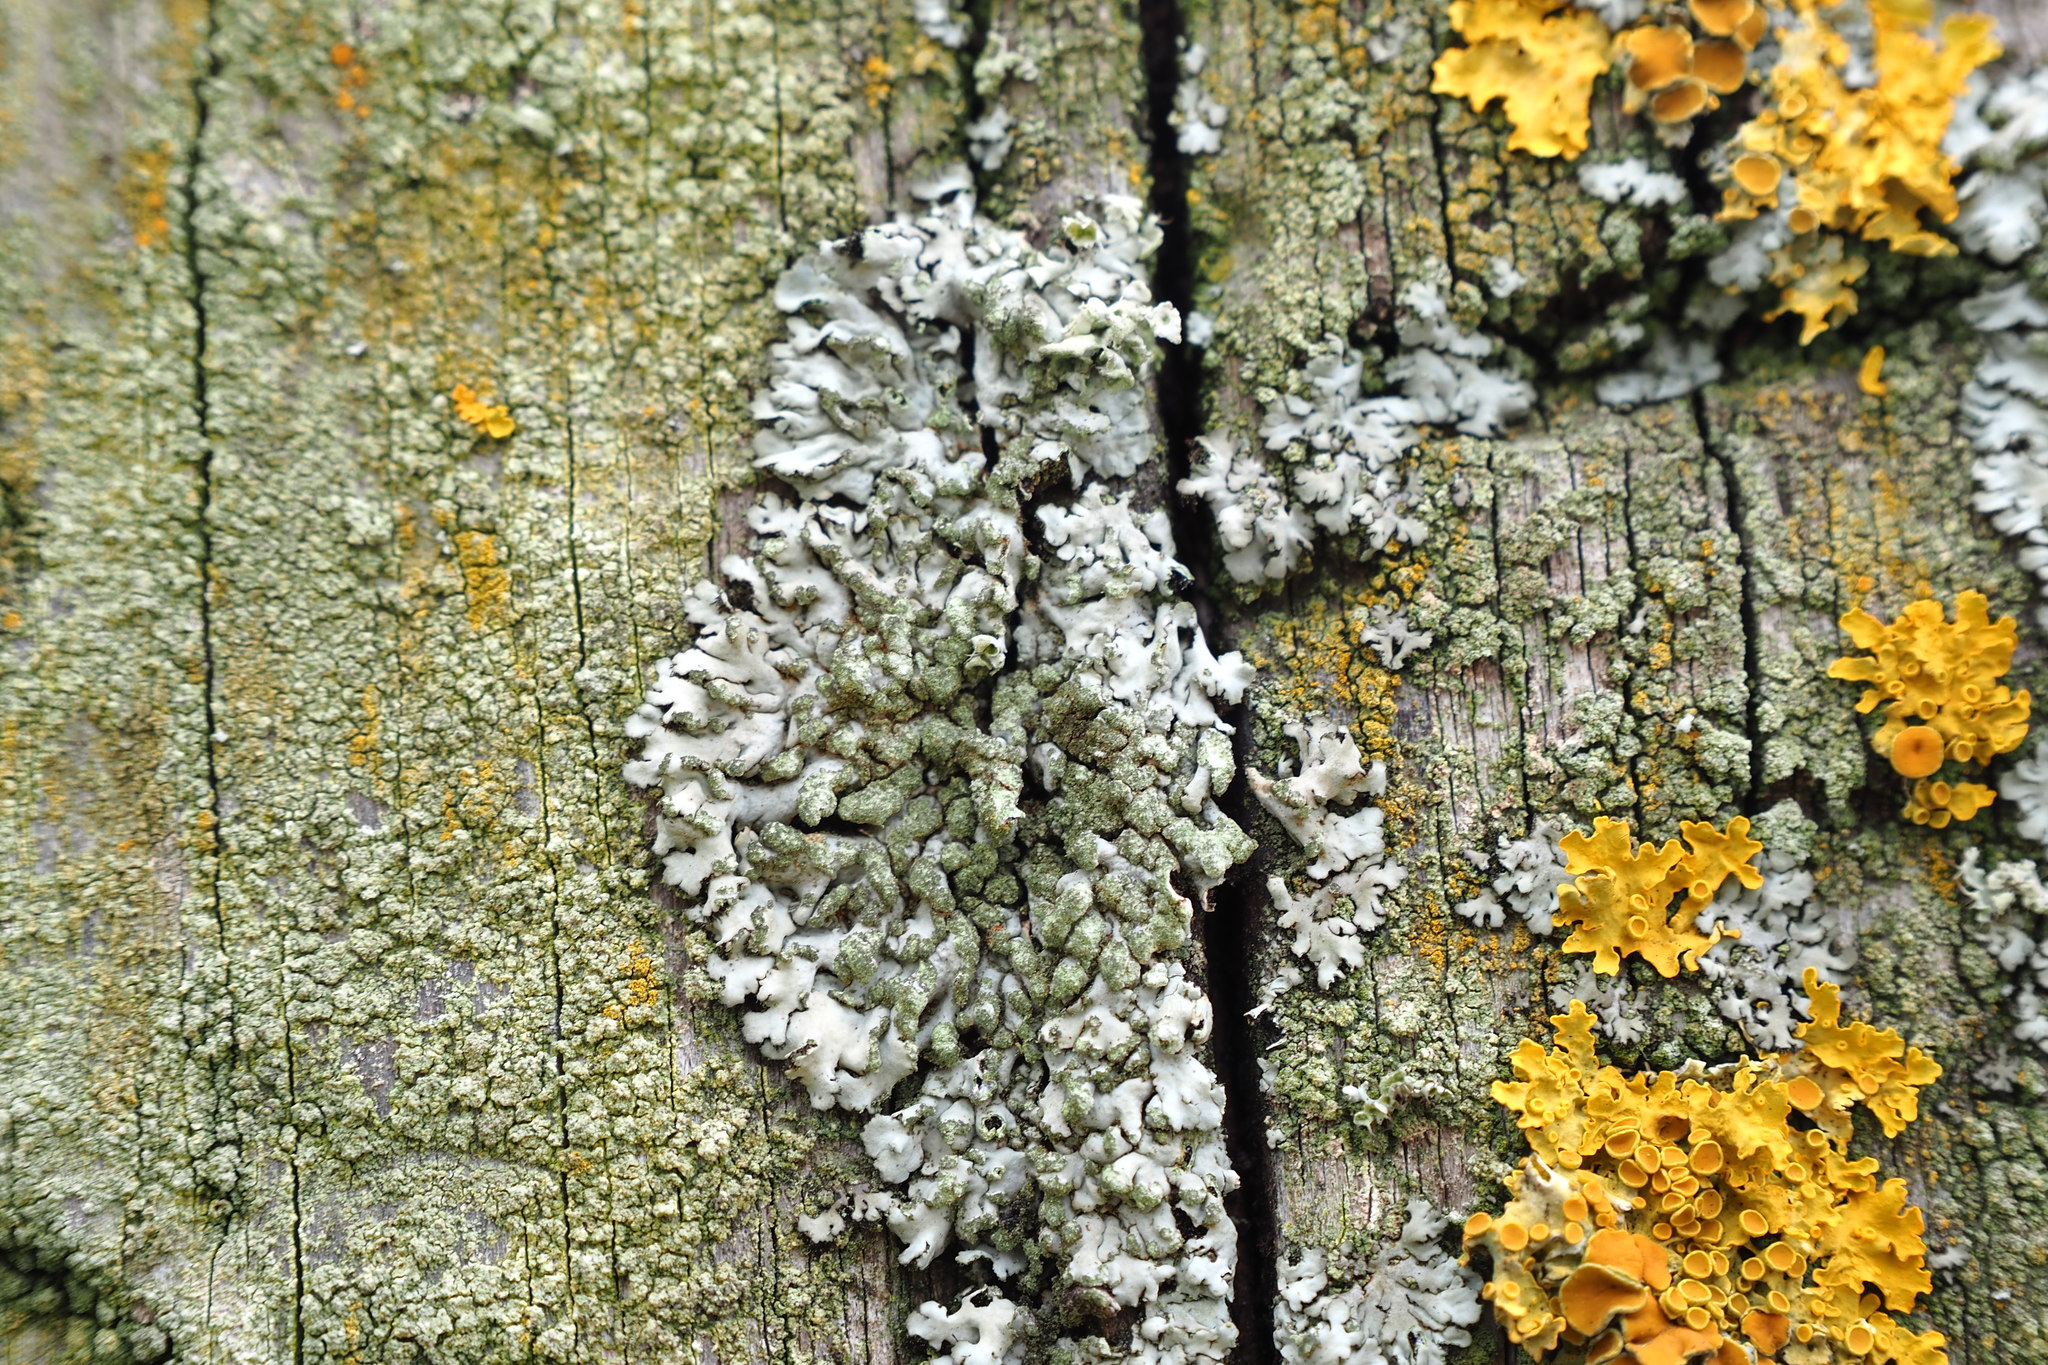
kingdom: Fungi
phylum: Ascomycota
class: Lecanoromycetes
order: Caliciales
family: Physciaceae
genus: Phaeophyscia
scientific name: Phaeophyscia orbicularis
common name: Mealy shadow lichen
